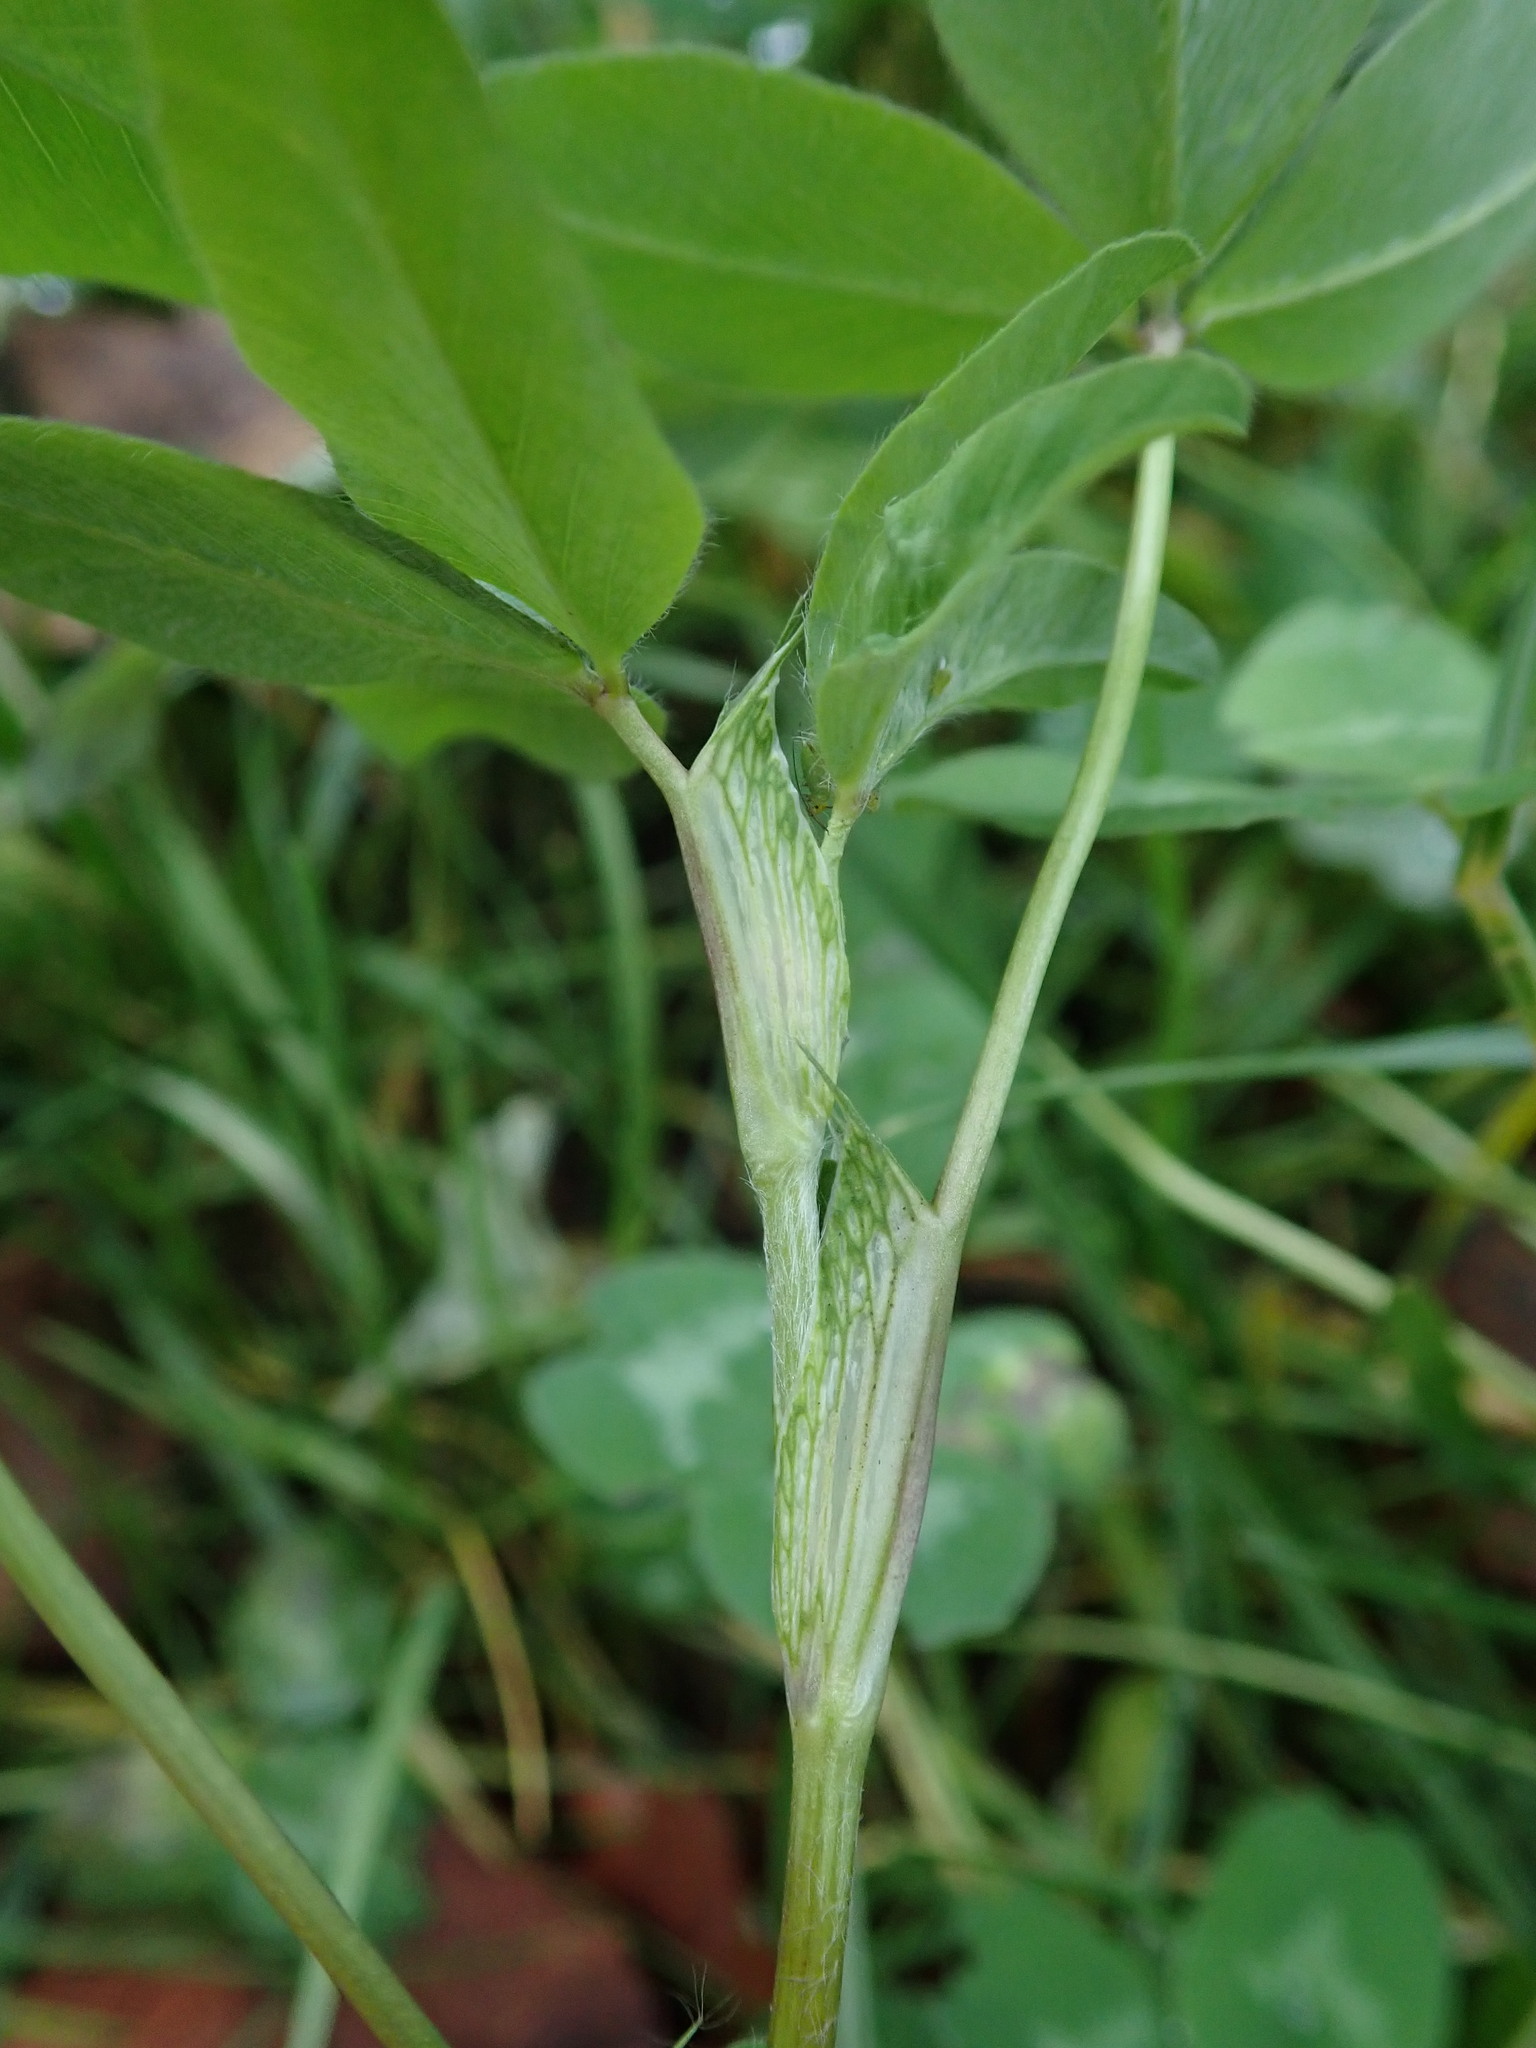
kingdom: Plantae
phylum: Tracheophyta
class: Magnoliopsida
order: Fabales
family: Fabaceae
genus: Trifolium
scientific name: Trifolium pratense
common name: Red clover
